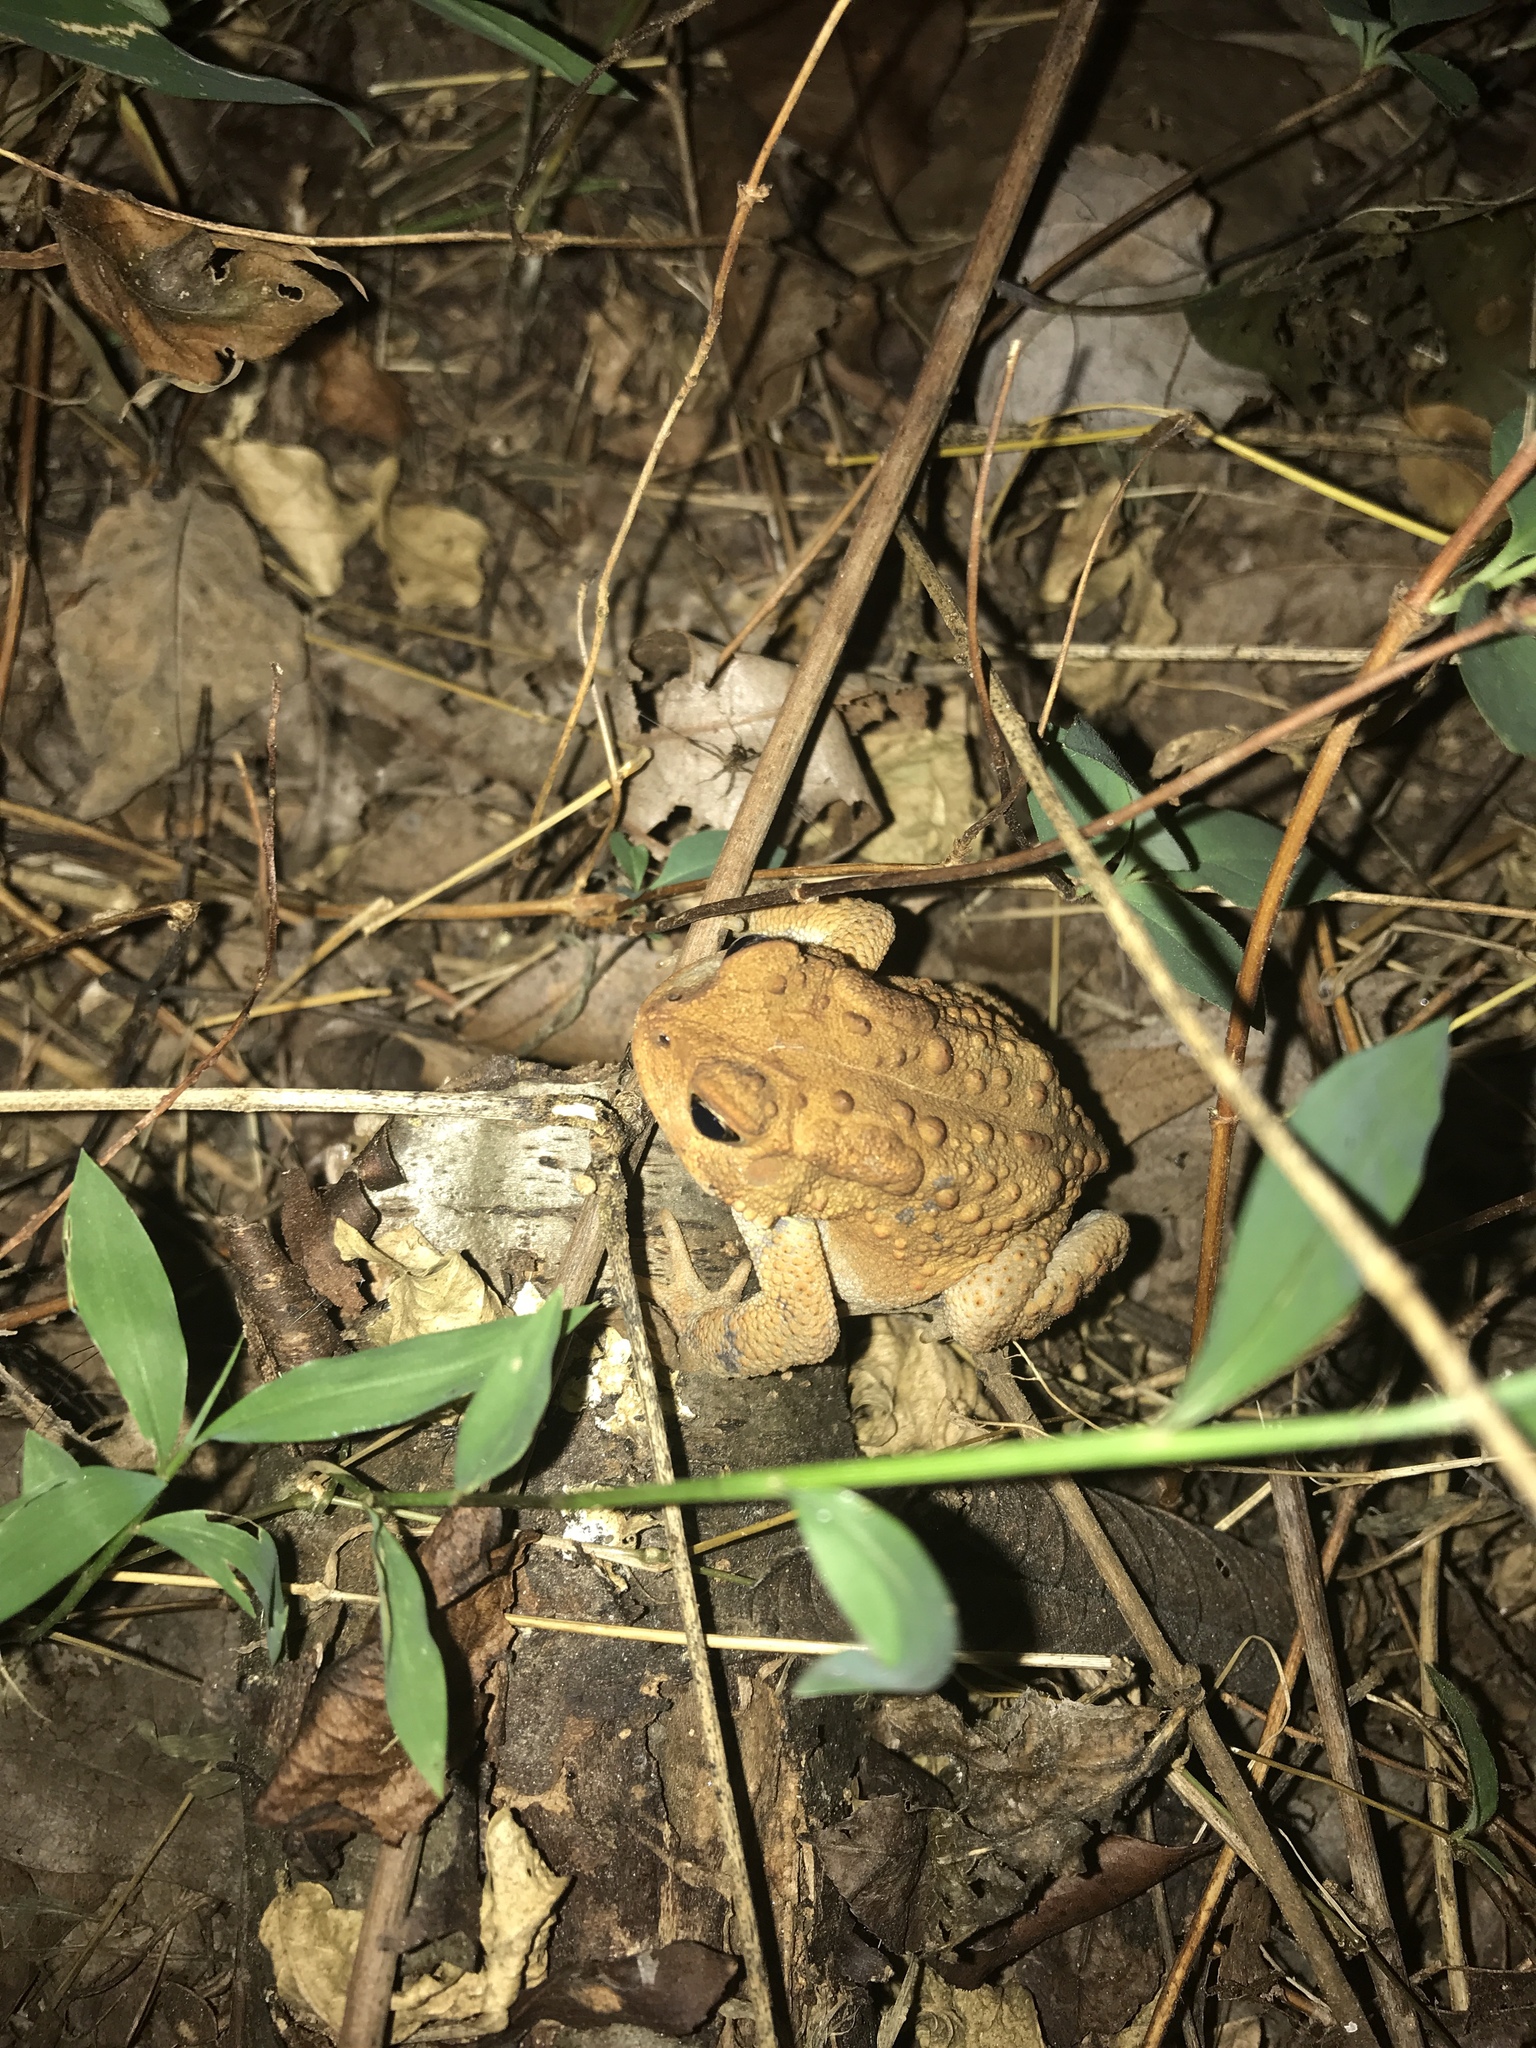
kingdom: Animalia
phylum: Chordata
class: Amphibia
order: Anura
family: Bufonidae
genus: Anaxyrus
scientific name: Anaxyrus americanus
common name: American toad
